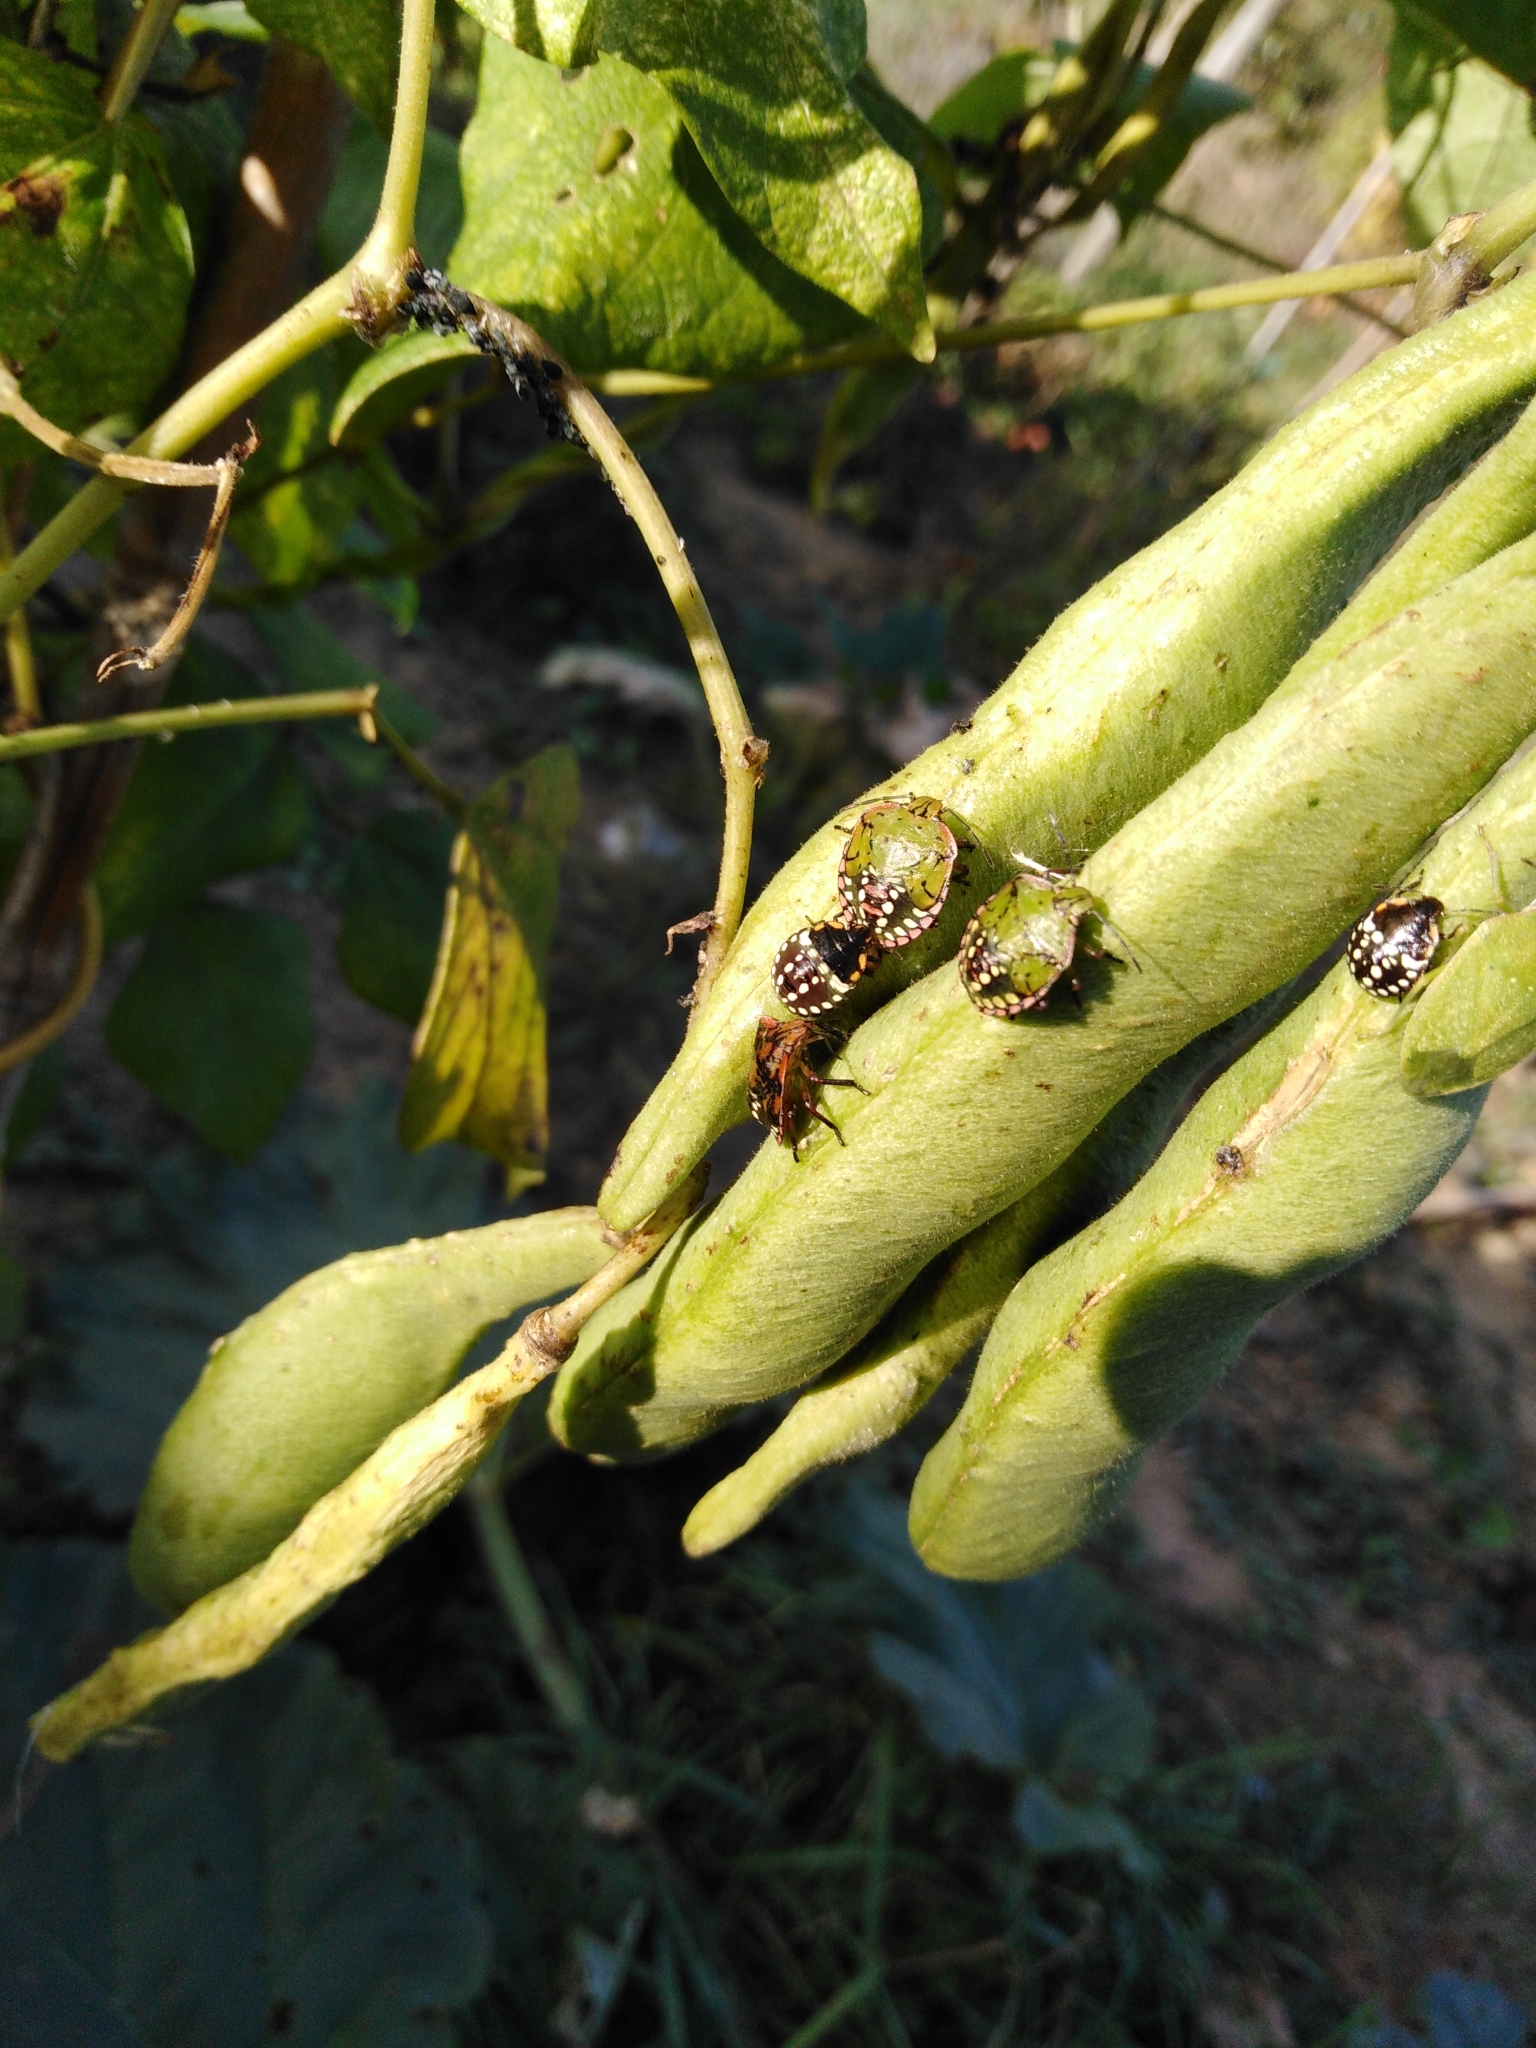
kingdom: Animalia
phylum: Arthropoda
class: Insecta
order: Hemiptera
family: Pentatomidae
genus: Nezara
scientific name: Nezara viridula
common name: Southern green stink bug
